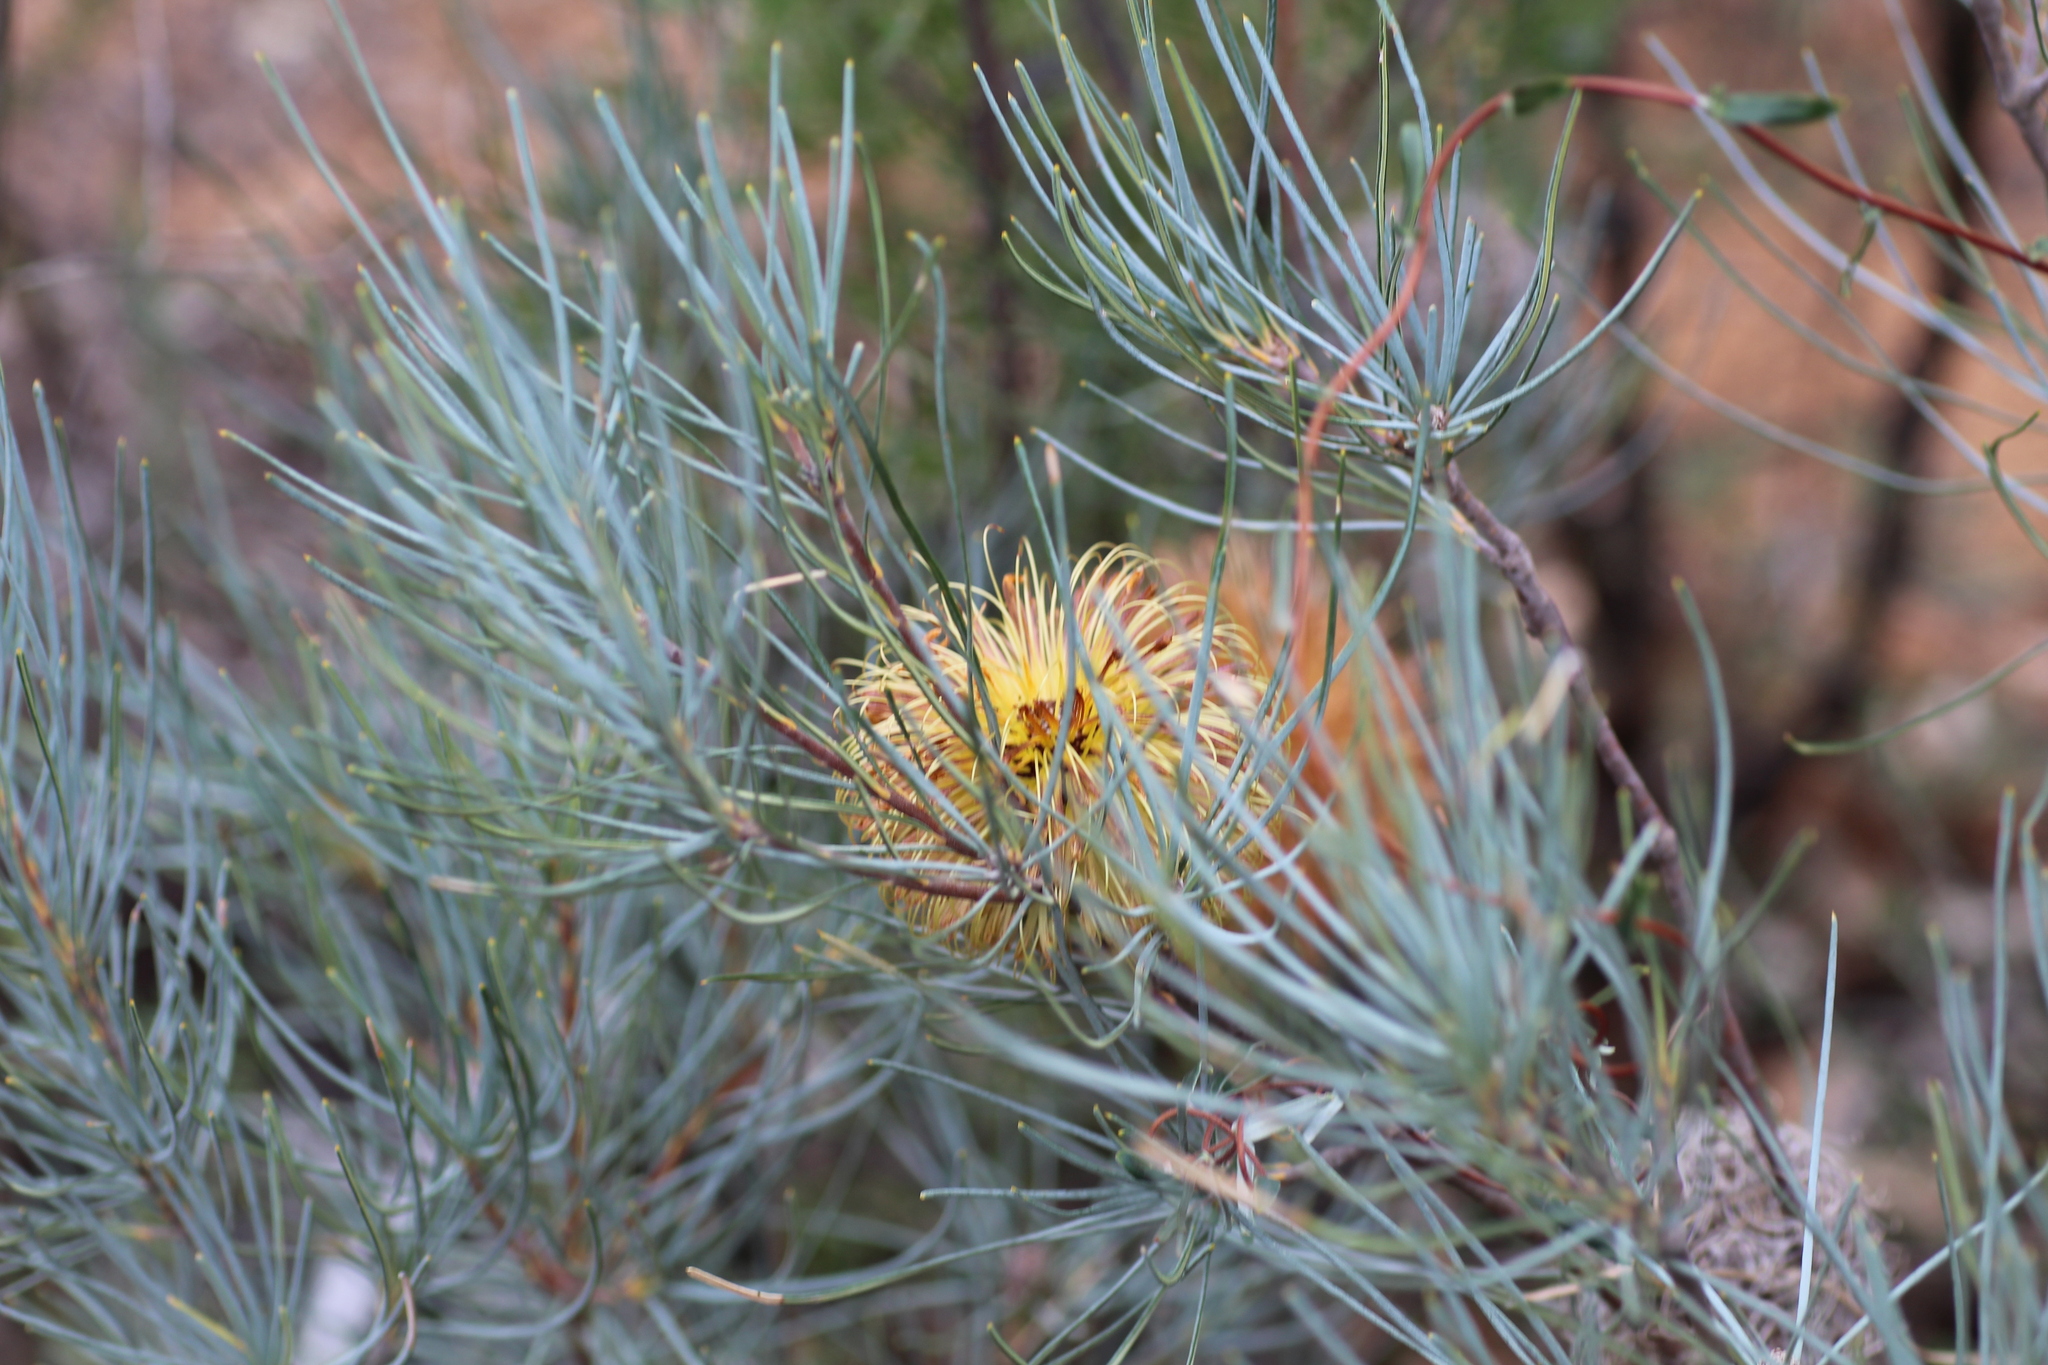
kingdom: Plantae
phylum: Tracheophyta
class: Magnoliopsida
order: Proteales
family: Proteaceae
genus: Banksia
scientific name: Banksia sphaerocarpa
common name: Fox banksia
